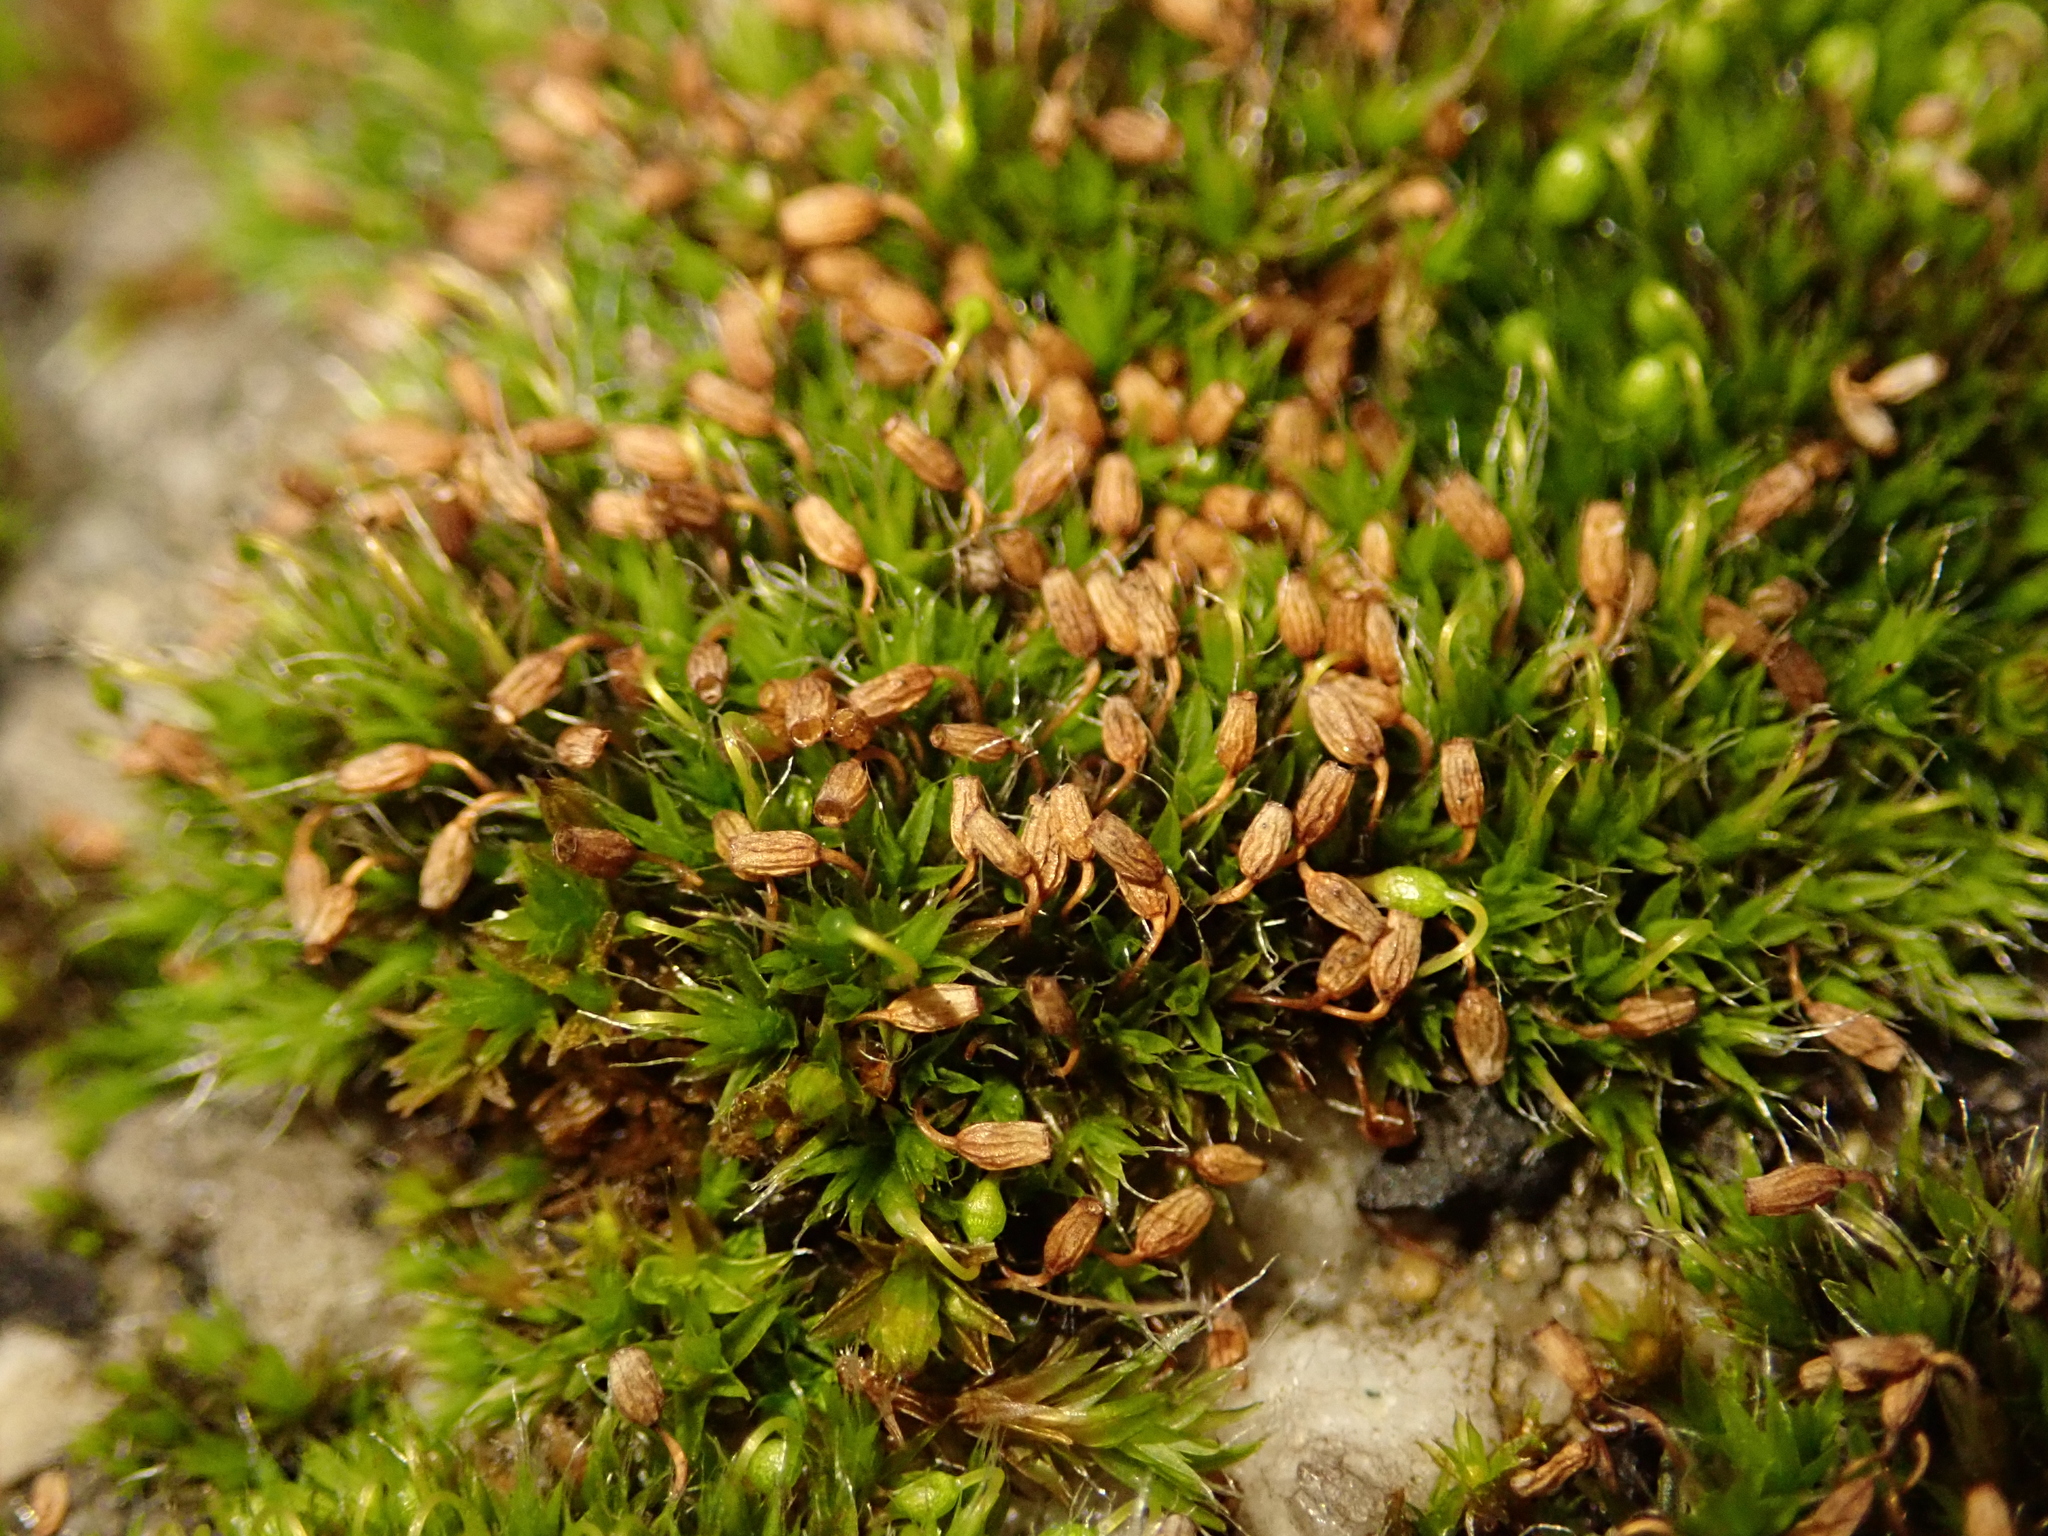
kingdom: Plantae
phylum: Bryophyta
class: Bryopsida
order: Grimmiales
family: Grimmiaceae
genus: Grimmia
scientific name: Grimmia pulvinata
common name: Grey-cushioned grimmia
